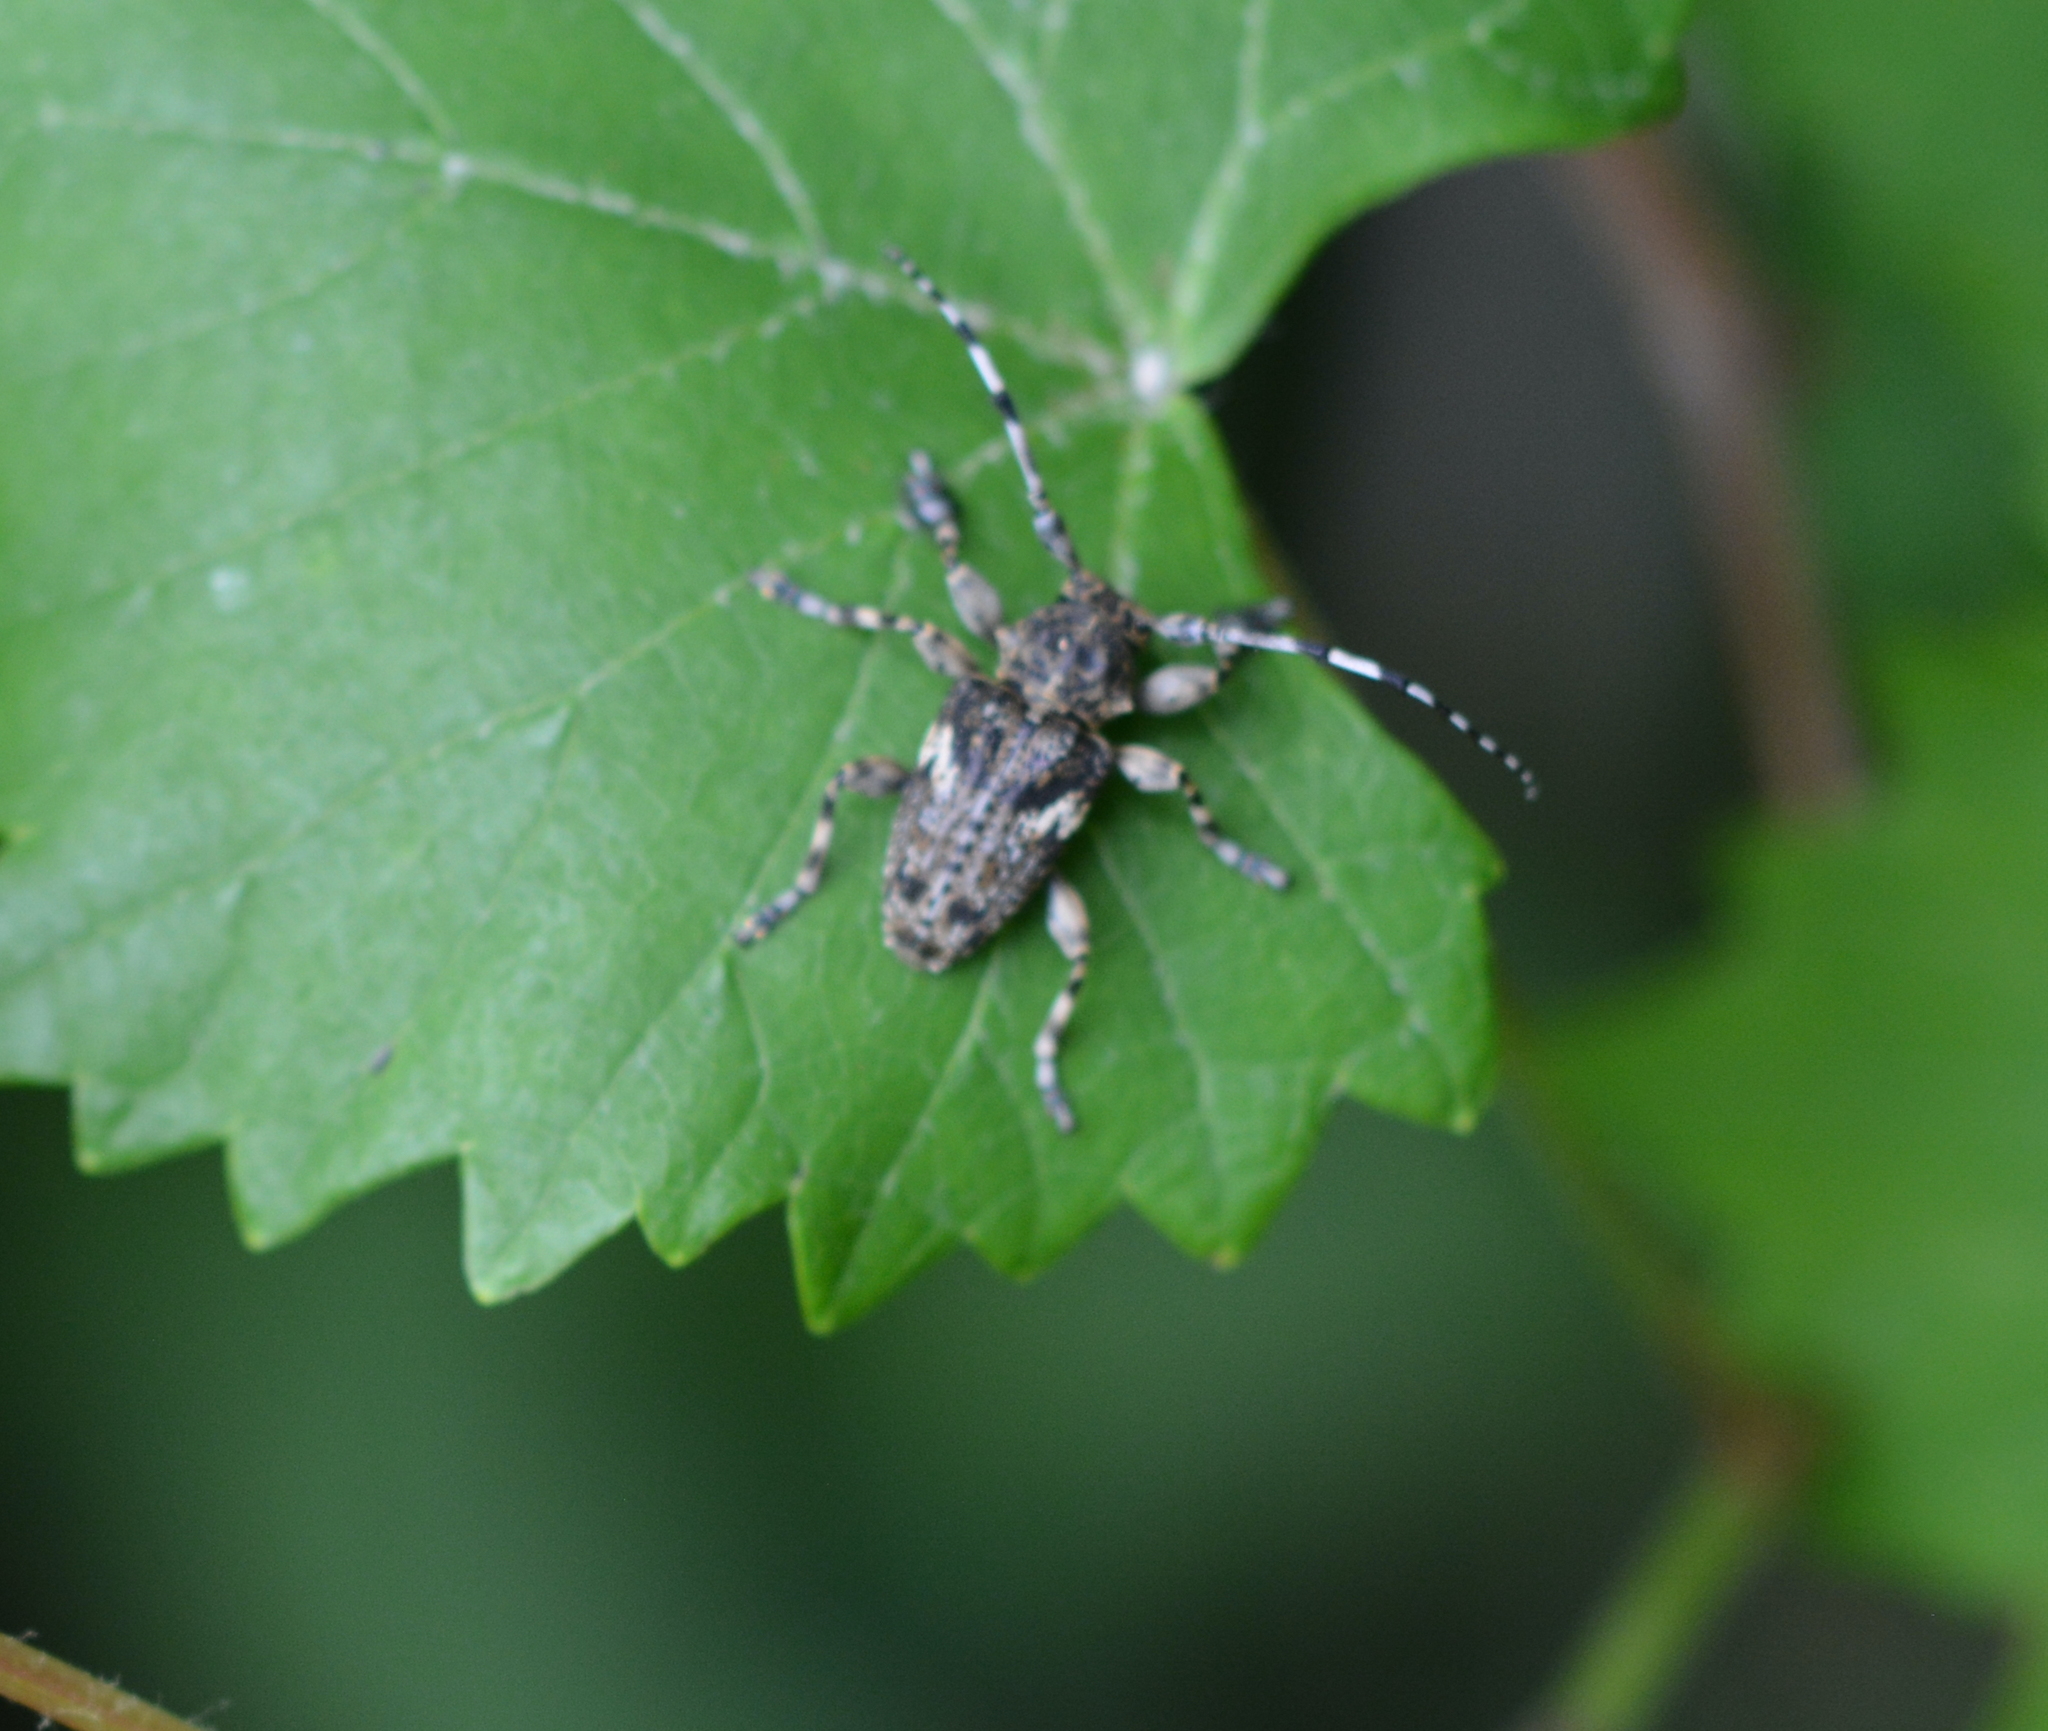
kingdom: Animalia
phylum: Arthropoda
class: Insecta
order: Coleoptera
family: Cerambycidae
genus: Acanthoderes
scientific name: Acanthoderes quadrigibba
